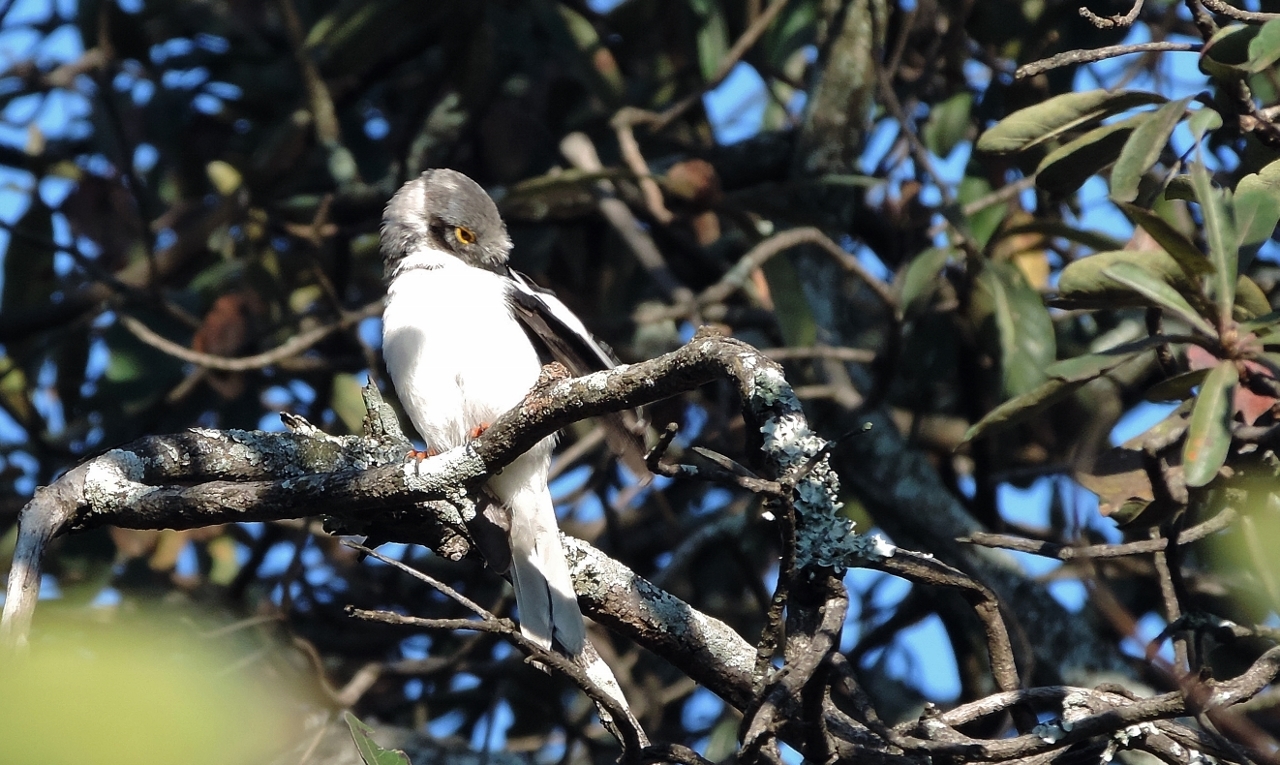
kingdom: Animalia
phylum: Chordata
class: Aves
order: Passeriformes
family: Prionopidae
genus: Prionops
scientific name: Prionops plumatus
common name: White-crested helmetshrike
